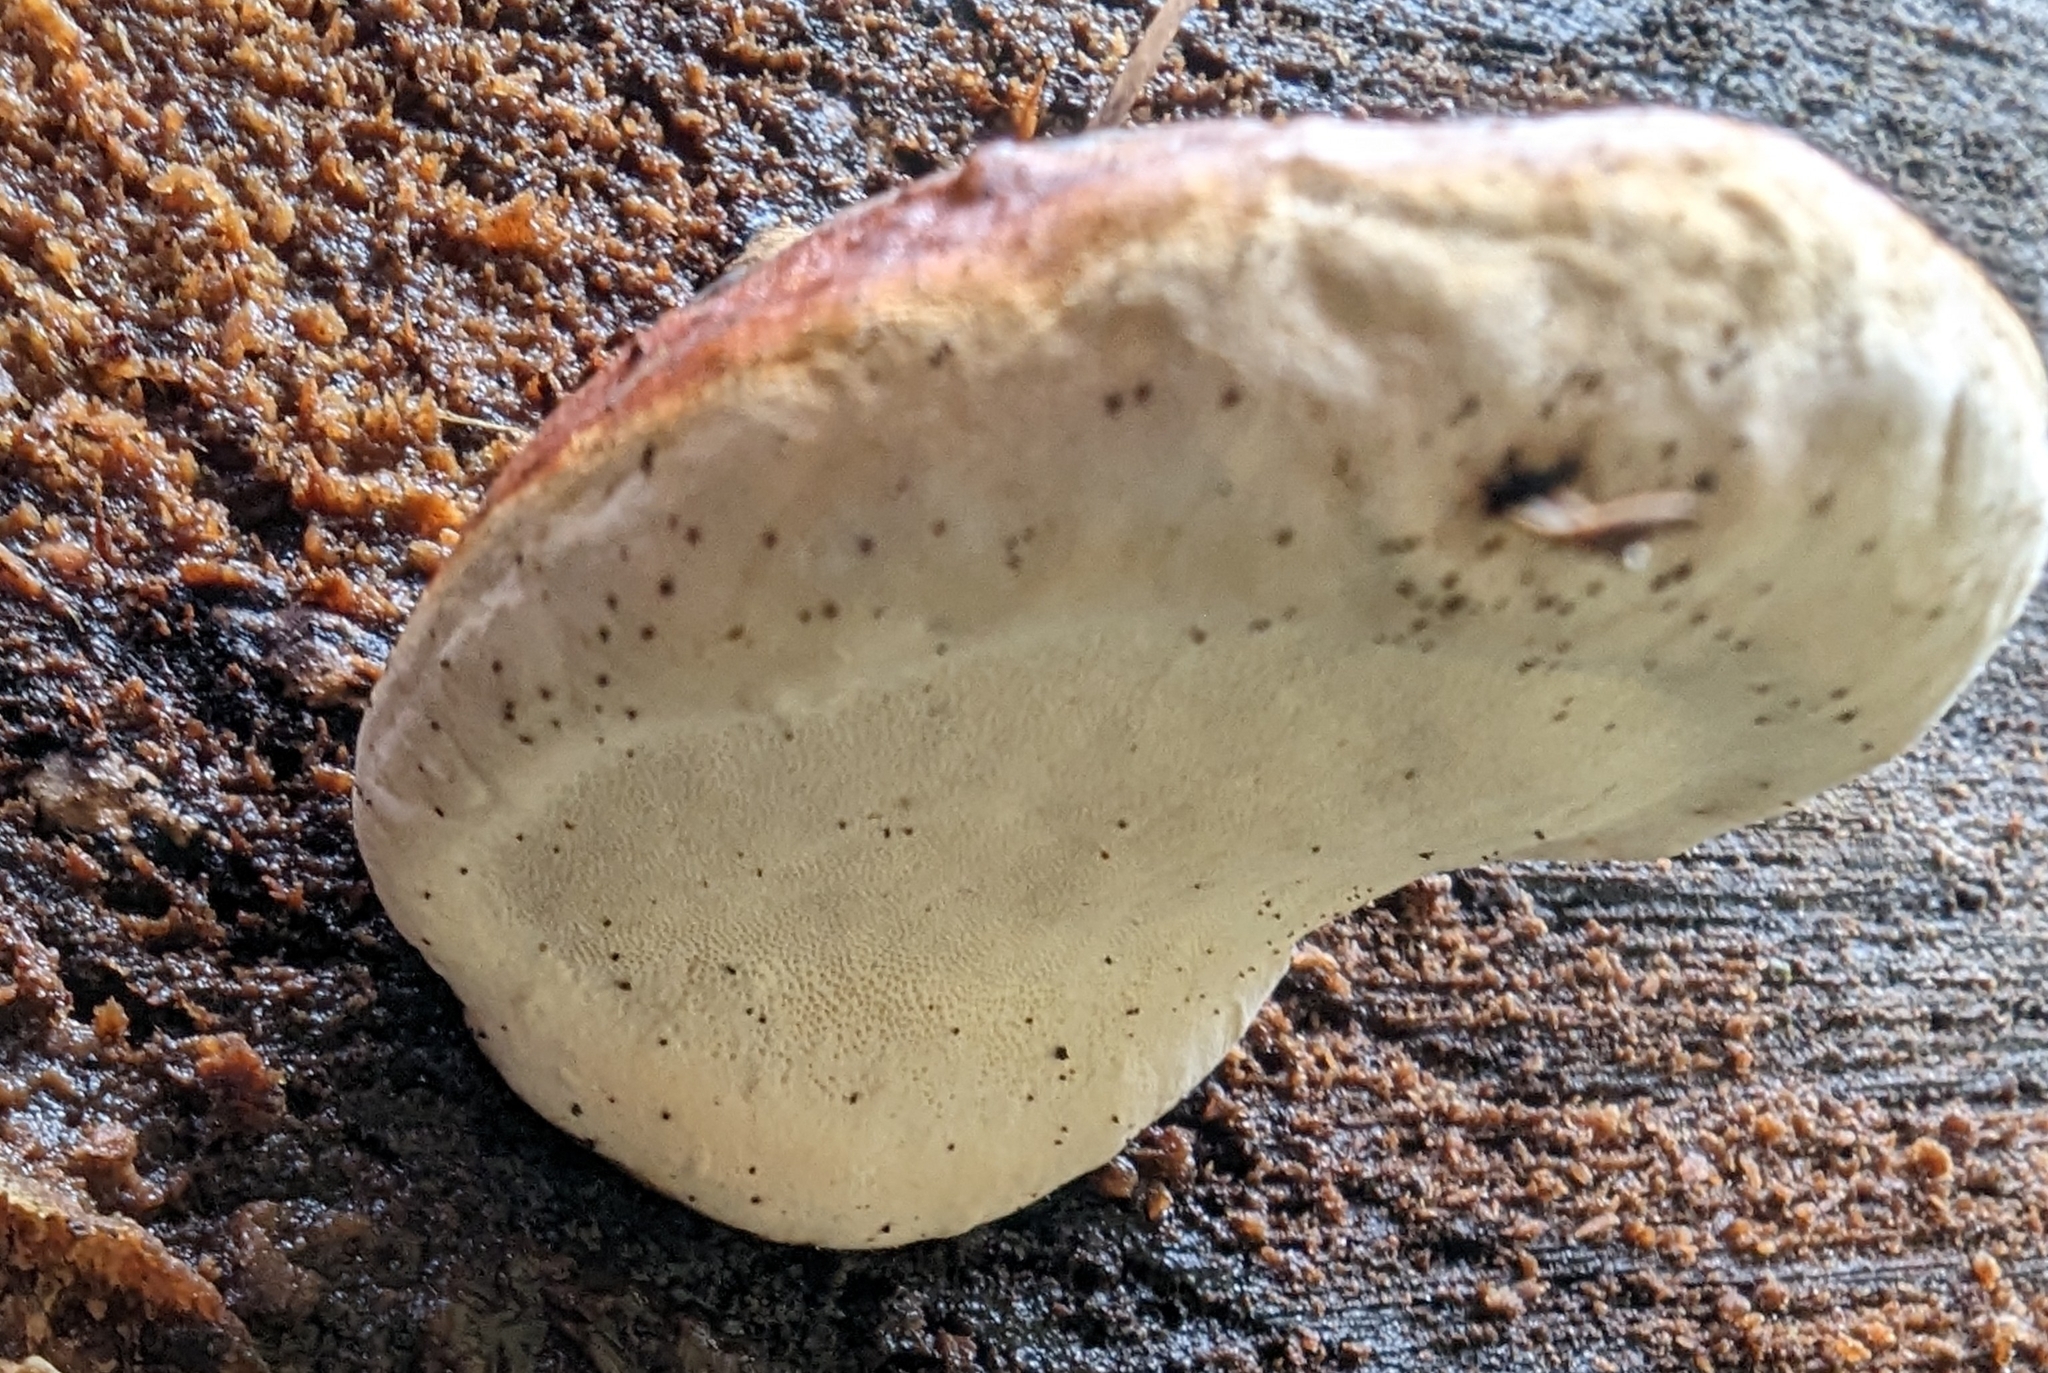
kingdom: Fungi
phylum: Basidiomycota
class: Agaricomycetes
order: Polyporales
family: Fomitopsidaceae
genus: Fomitopsis
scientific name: Fomitopsis mounceae
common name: Northern red belt
